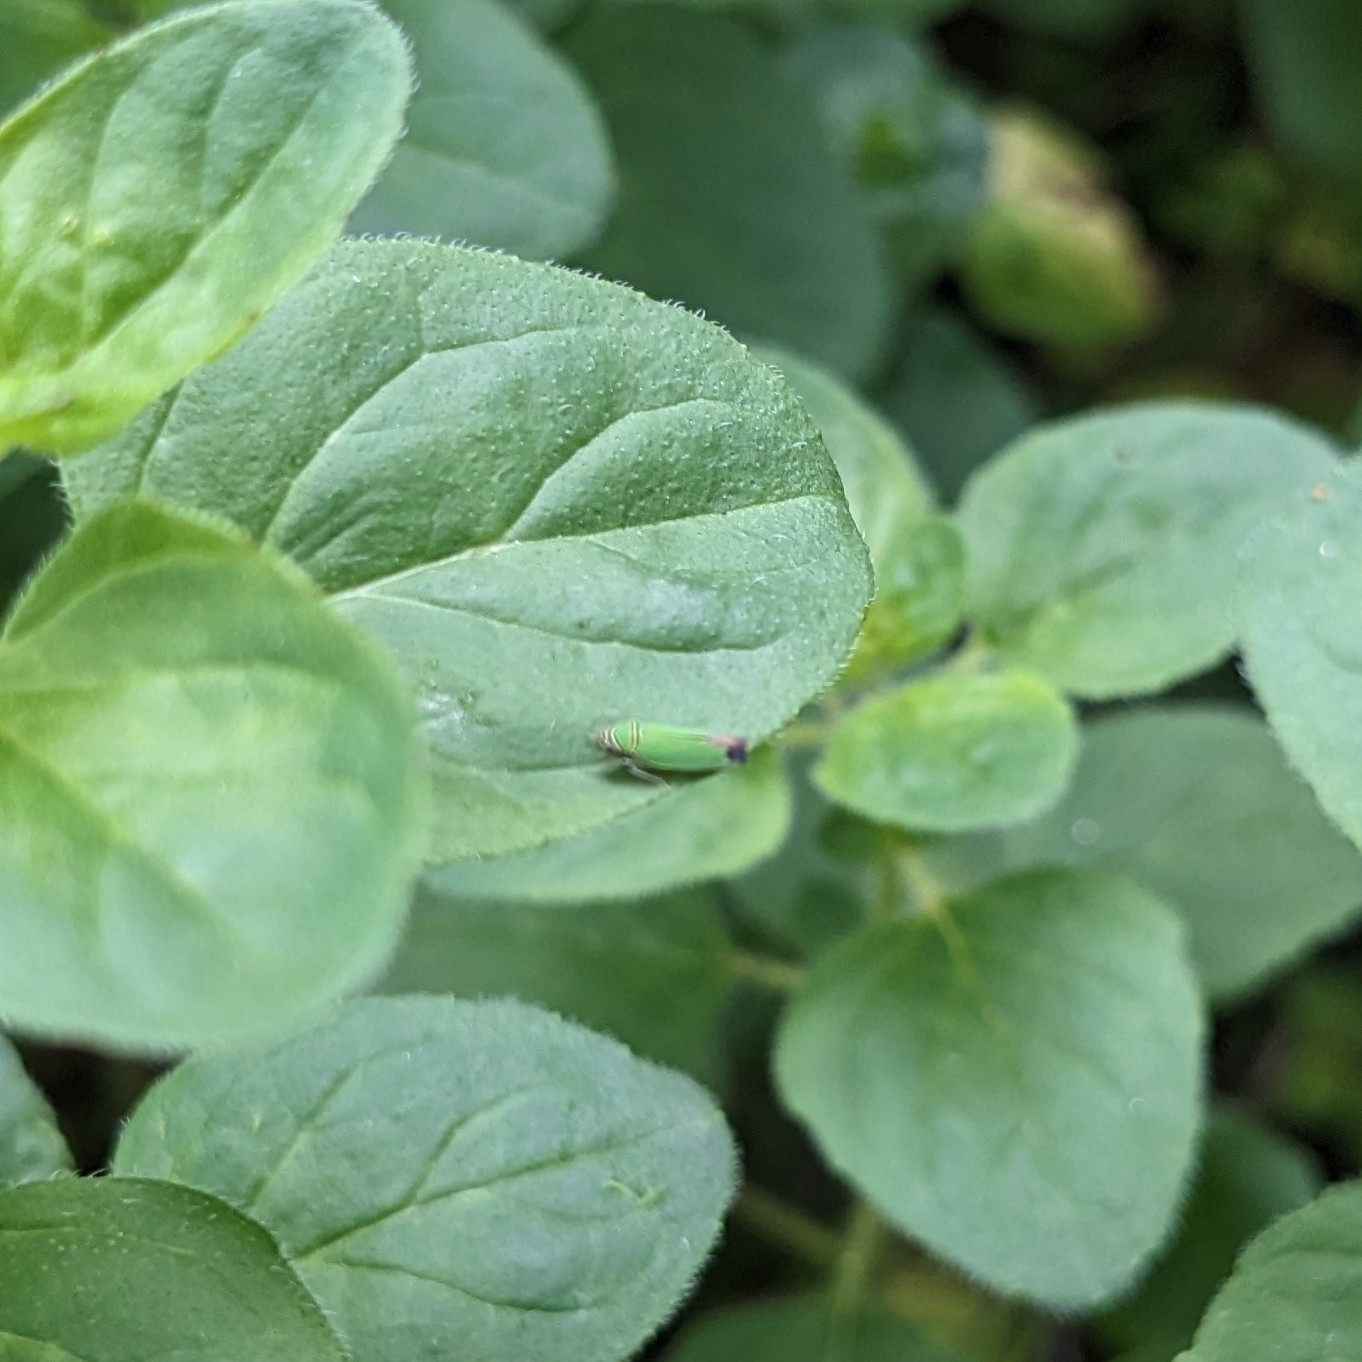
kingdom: Animalia
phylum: Arthropoda
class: Insecta
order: Hemiptera
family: Cicadellidae
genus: Tylozygus
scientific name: Tylozygus geometricus
